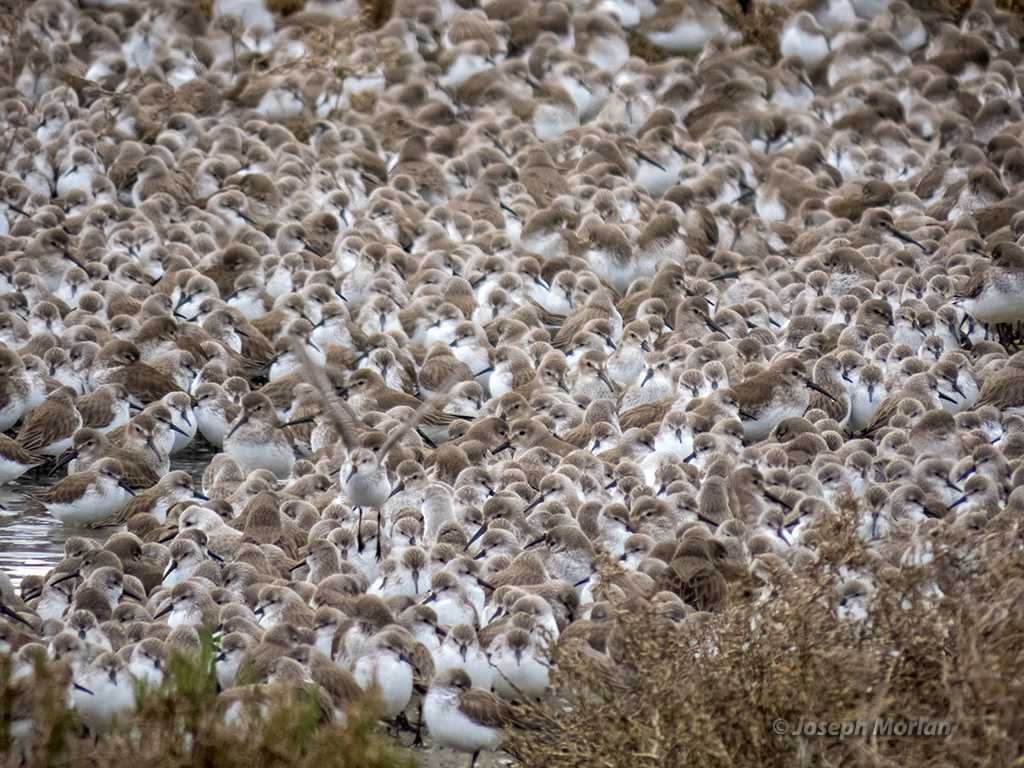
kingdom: Animalia
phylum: Chordata
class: Aves
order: Charadriiformes
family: Scolopacidae
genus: Calidris
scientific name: Calidris
